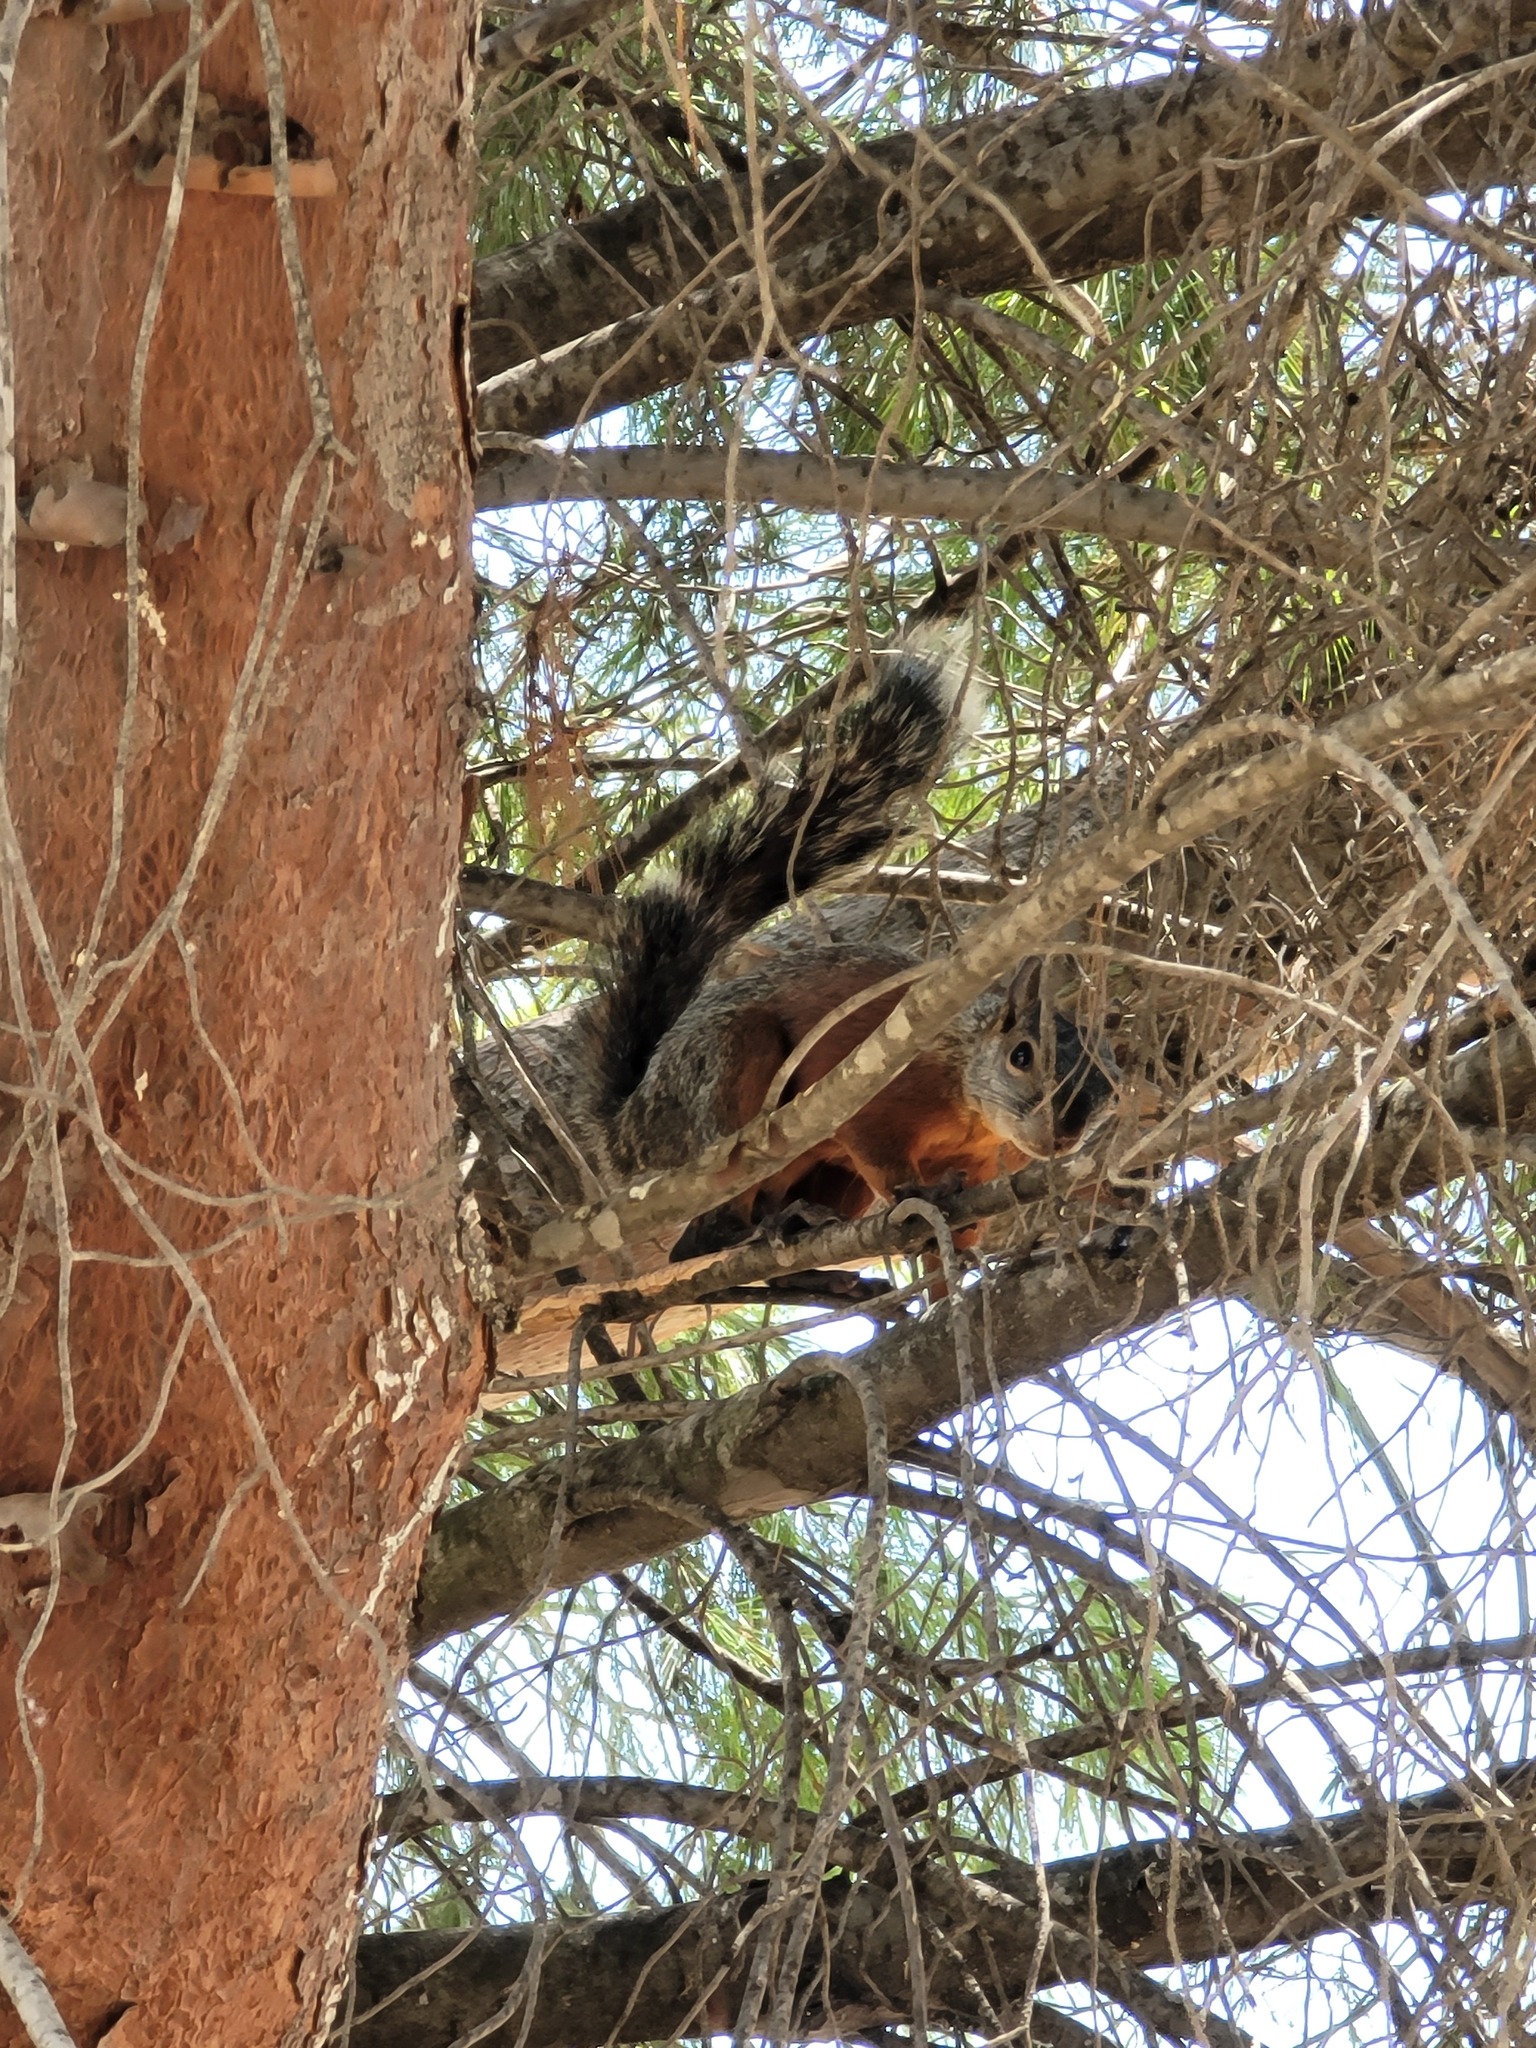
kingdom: Animalia
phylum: Chordata
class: Mammalia
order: Rodentia
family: Sciuridae
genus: Sciurus
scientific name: Sciurus aureogaster
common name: Red-bellied squirrel
